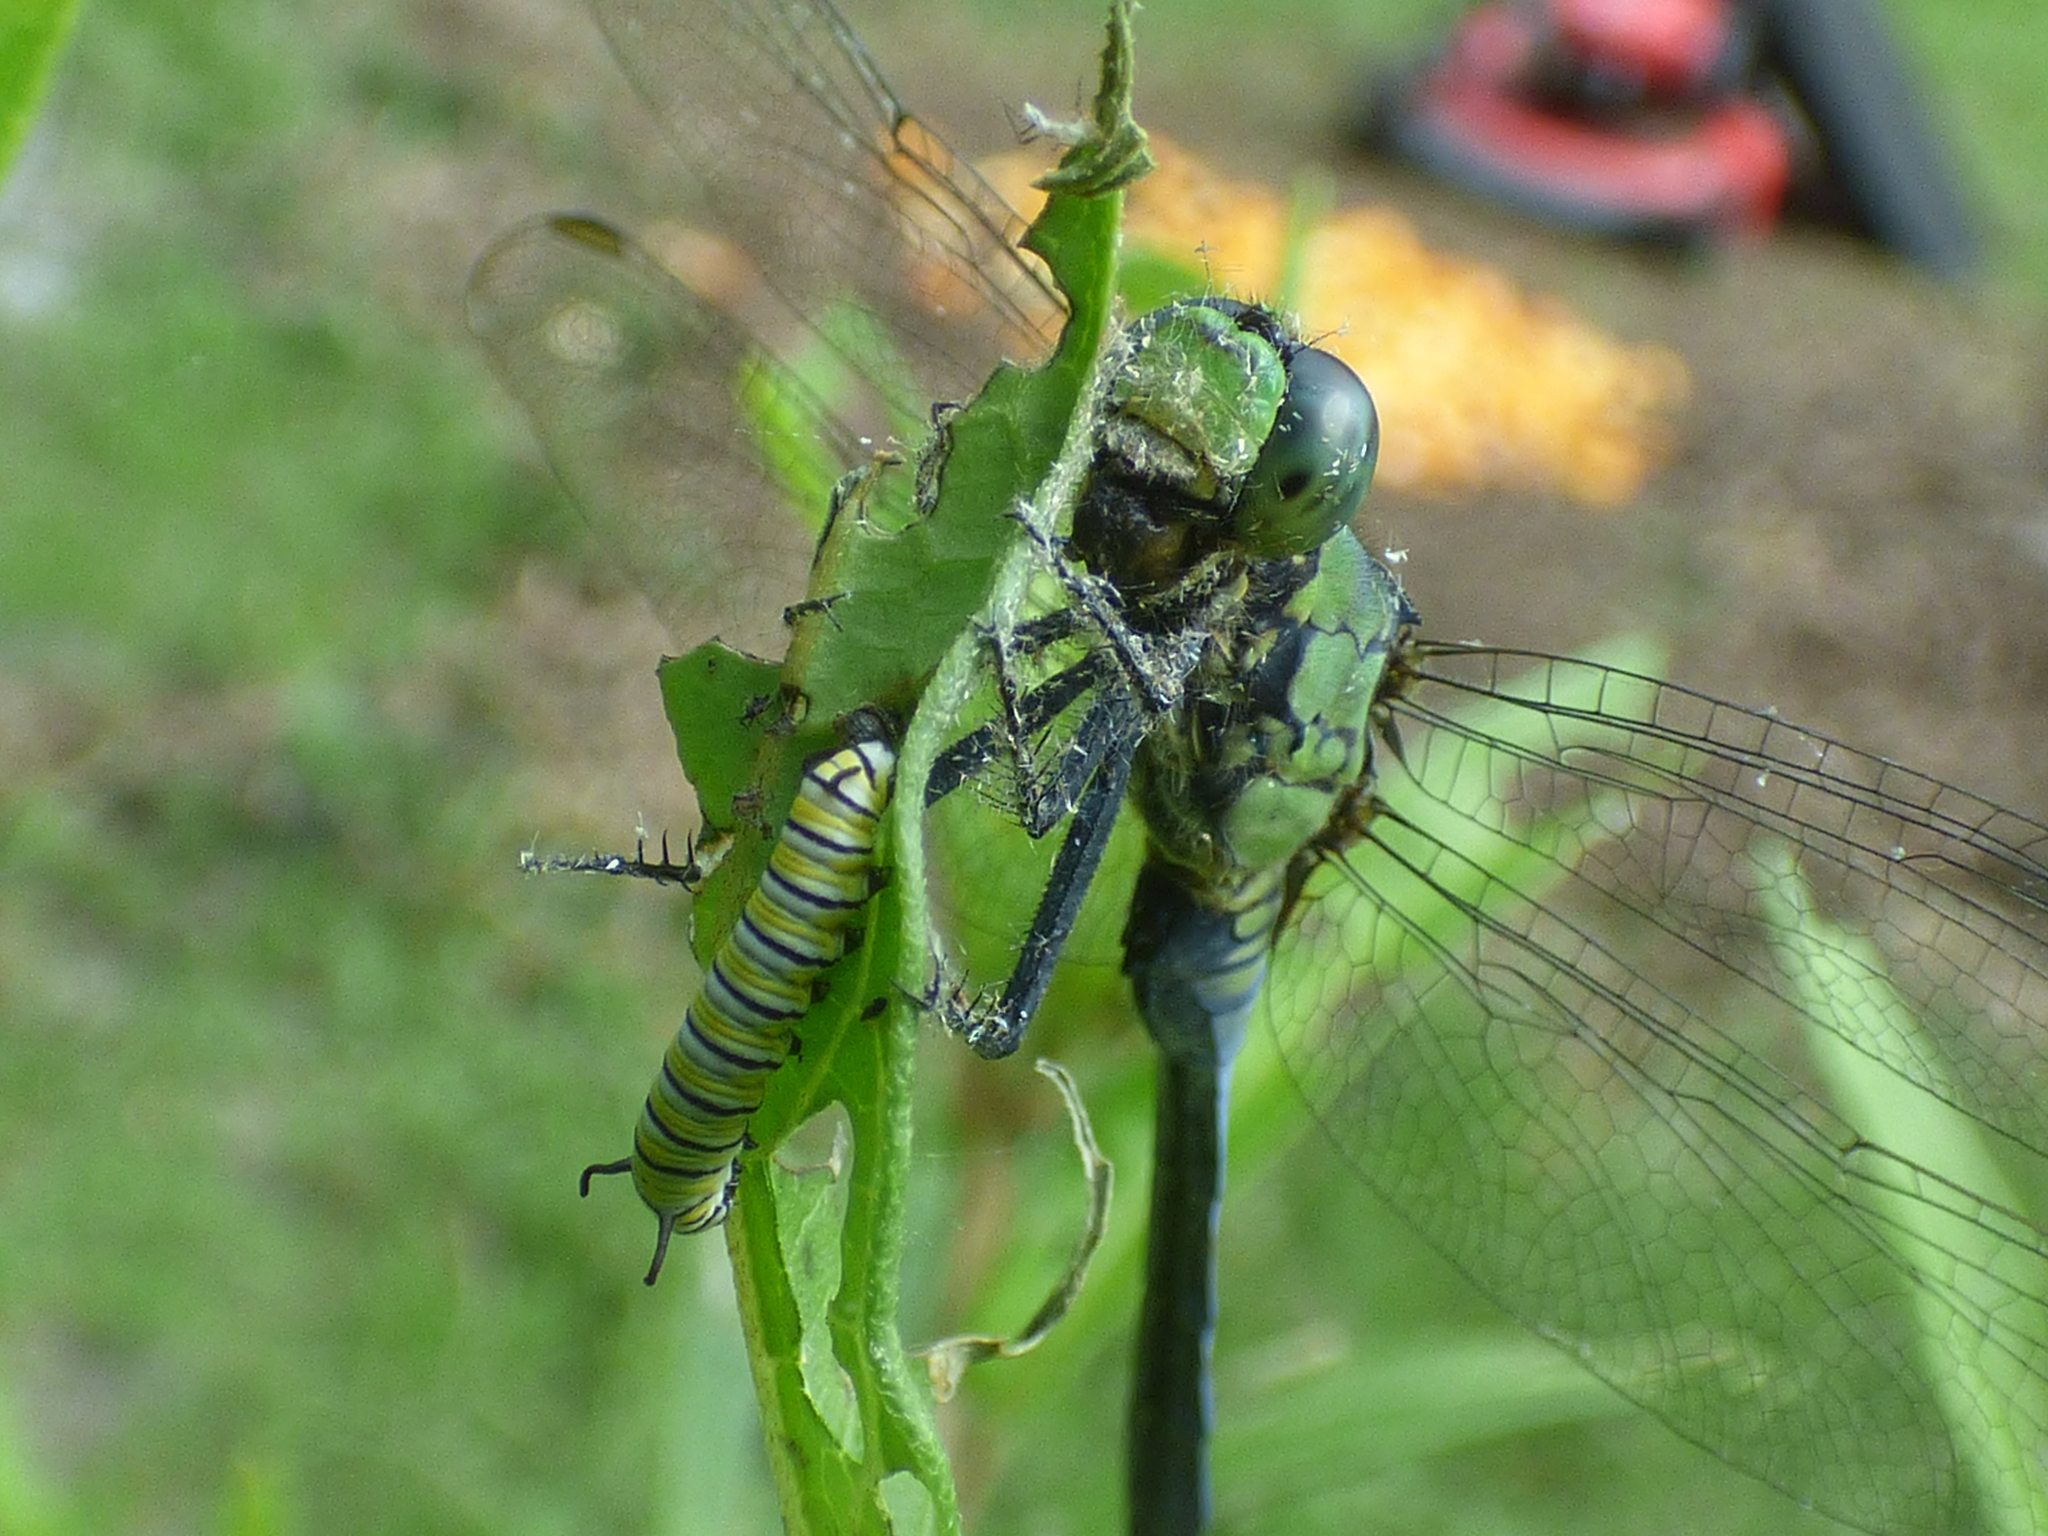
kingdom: Animalia
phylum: Arthropoda
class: Insecta
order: Odonata
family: Libellulidae
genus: Erythemis
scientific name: Erythemis simplicicollis
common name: Eastern pondhawk
